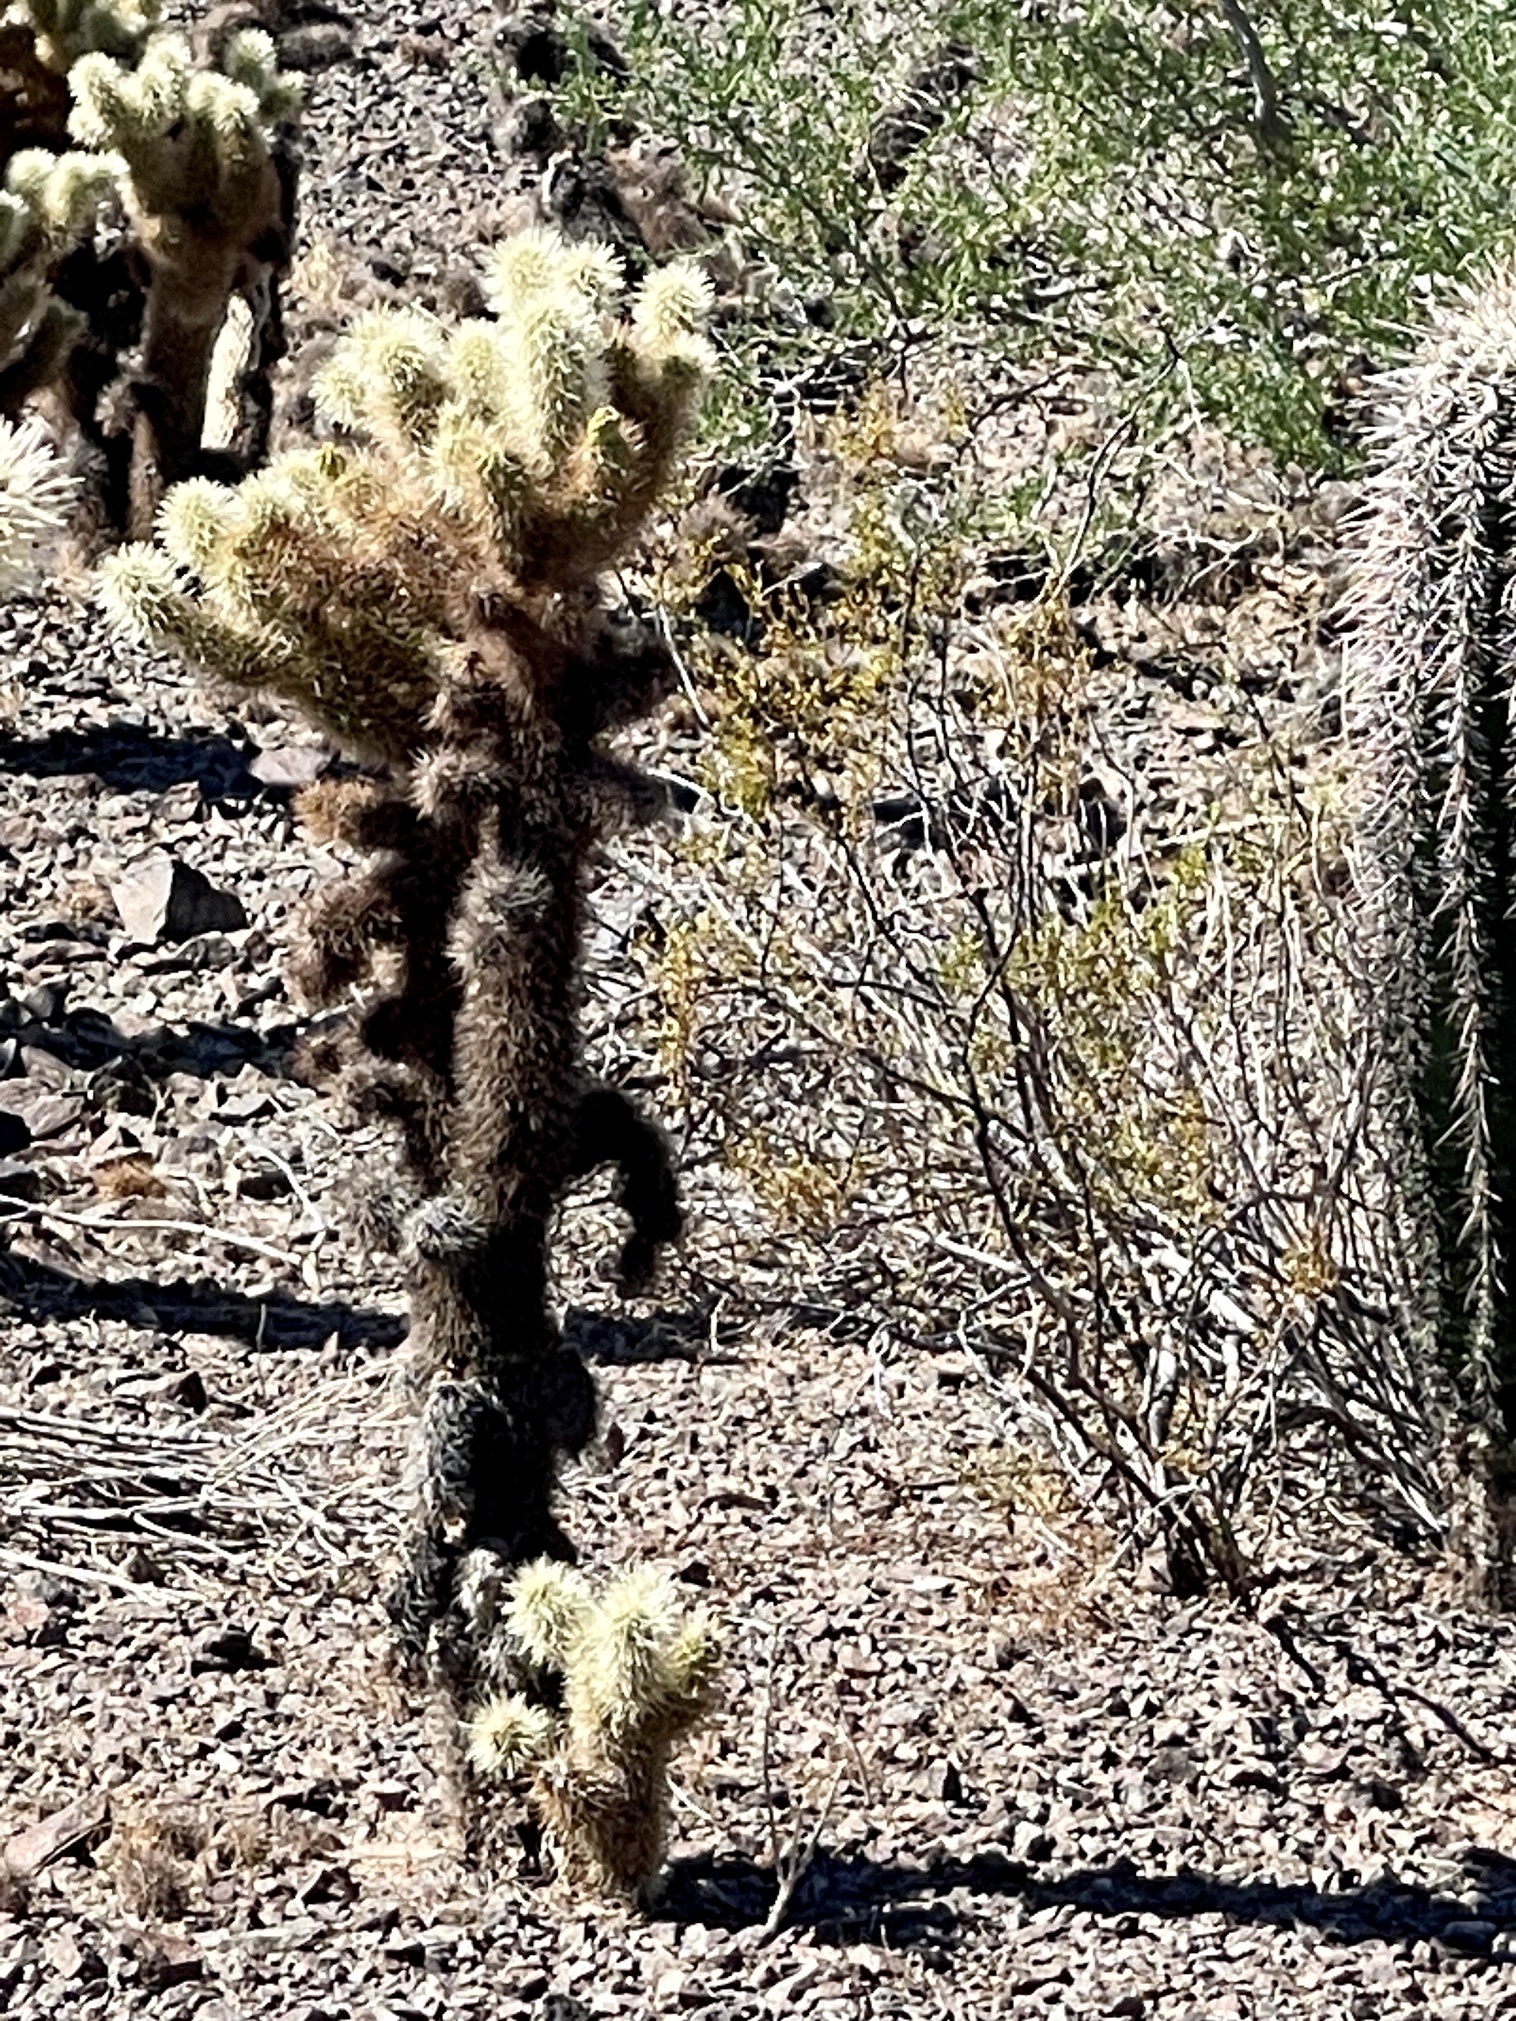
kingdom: Plantae
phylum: Tracheophyta
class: Magnoliopsida
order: Caryophyllales
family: Cactaceae
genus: Cylindropuntia
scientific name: Cylindropuntia fosbergii
